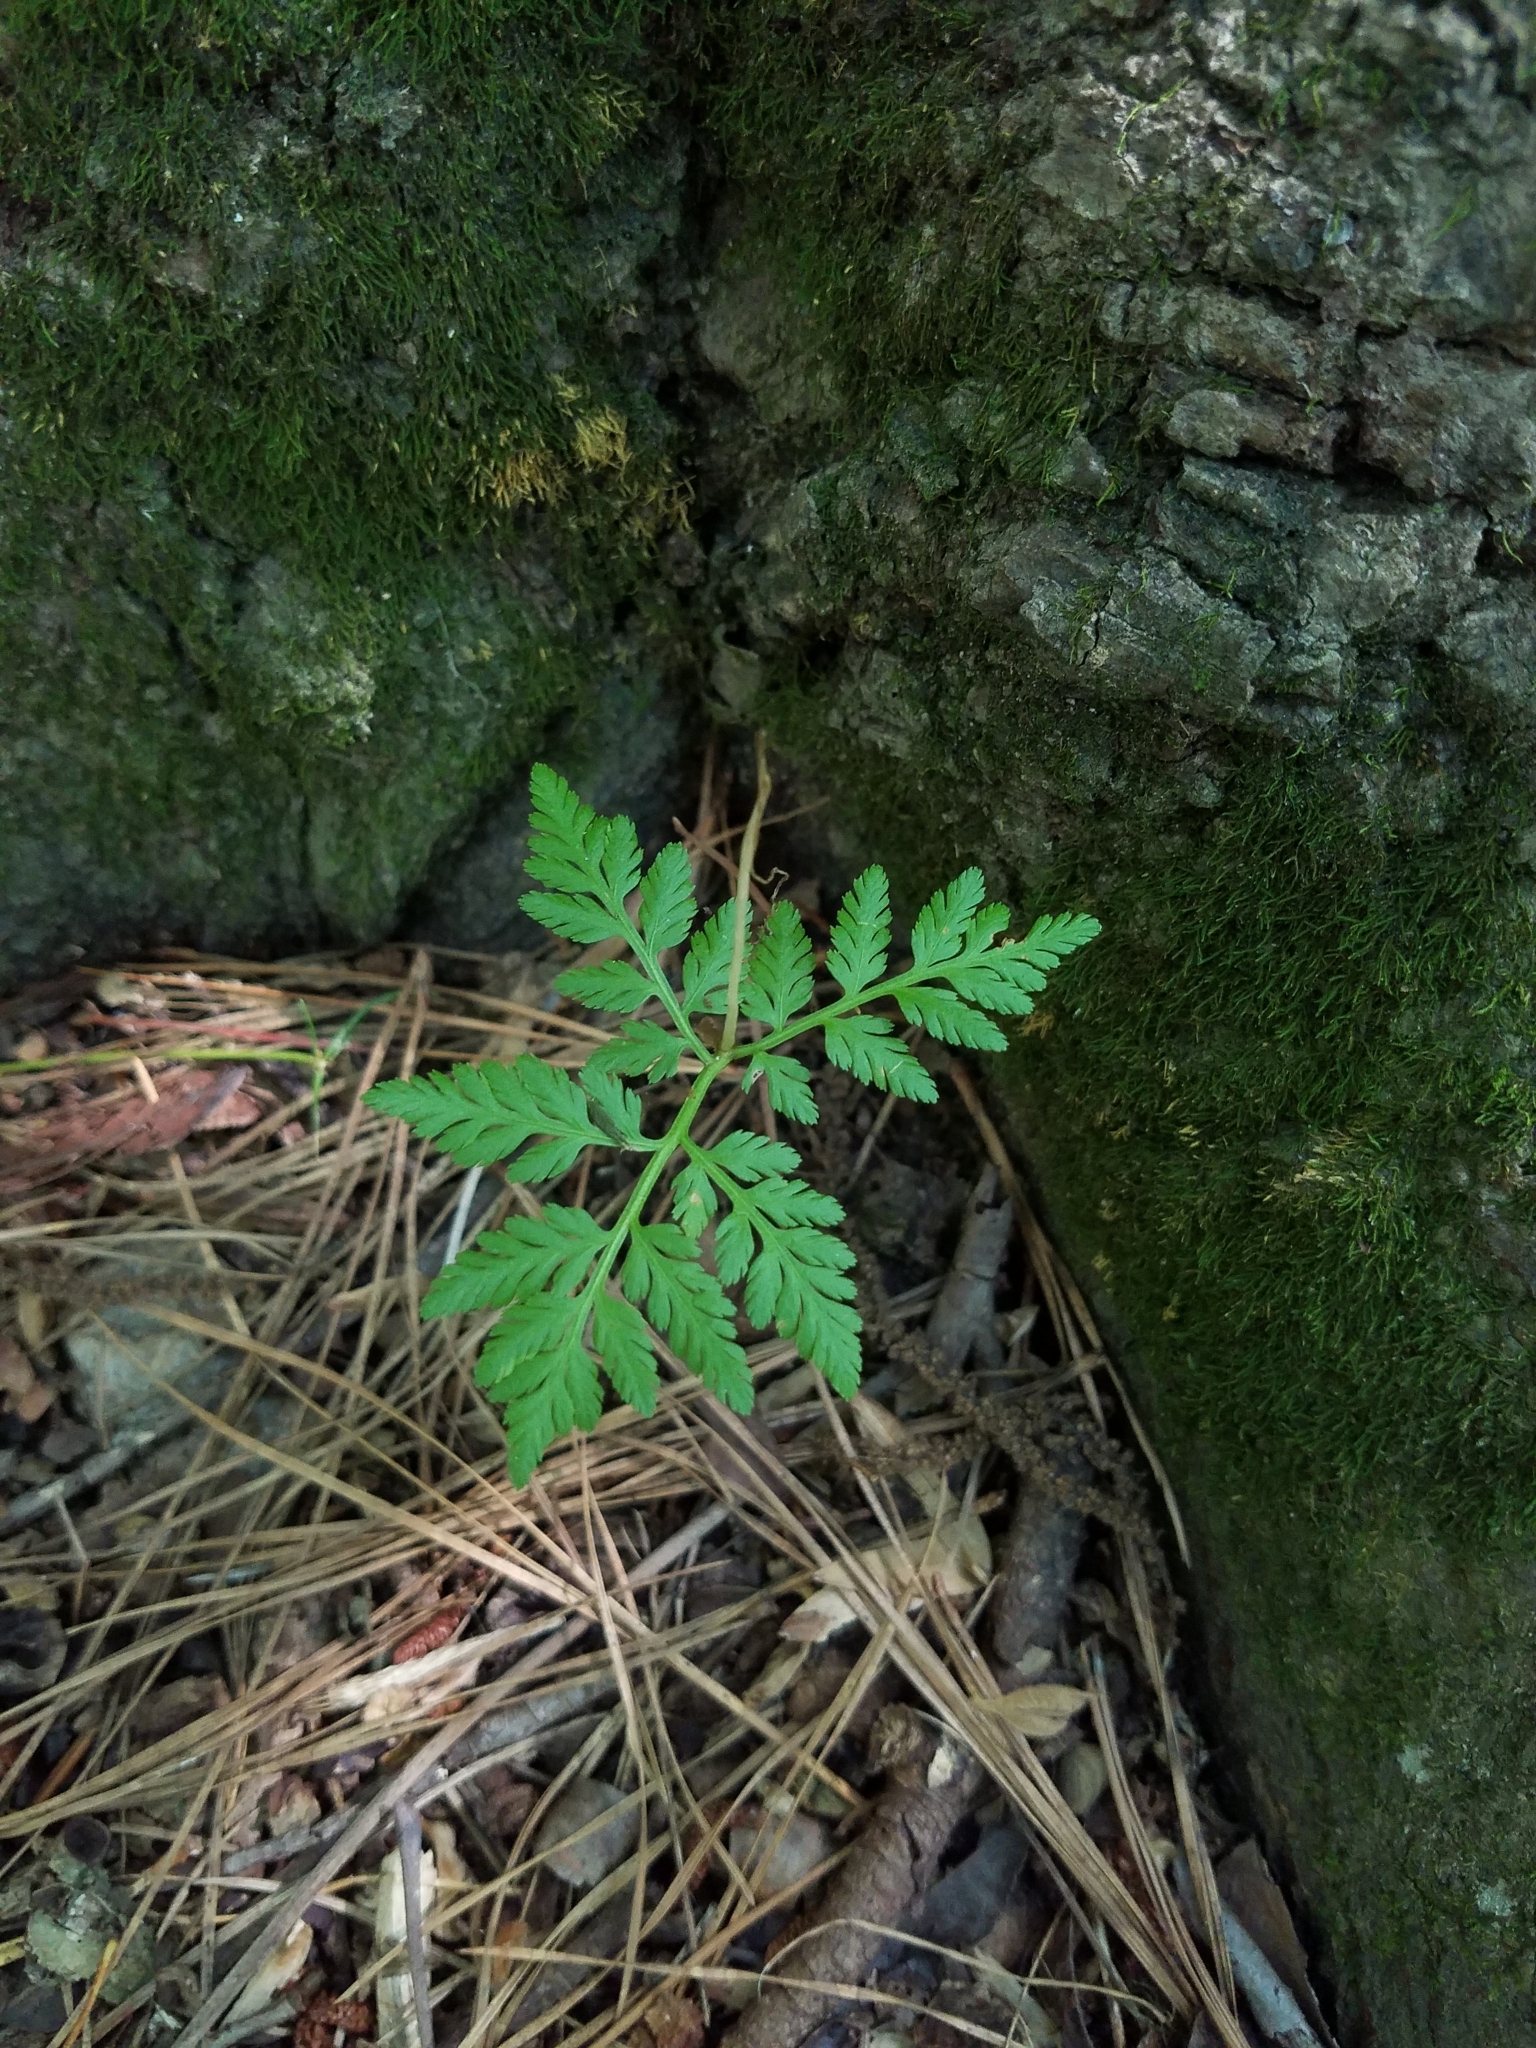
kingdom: Plantae
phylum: Tracheophyta
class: Polypodiopsida
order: Ophioglossales
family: Ophioglossaceae
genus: Botrypus
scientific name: Botrypus virginianus
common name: Common grapefern
